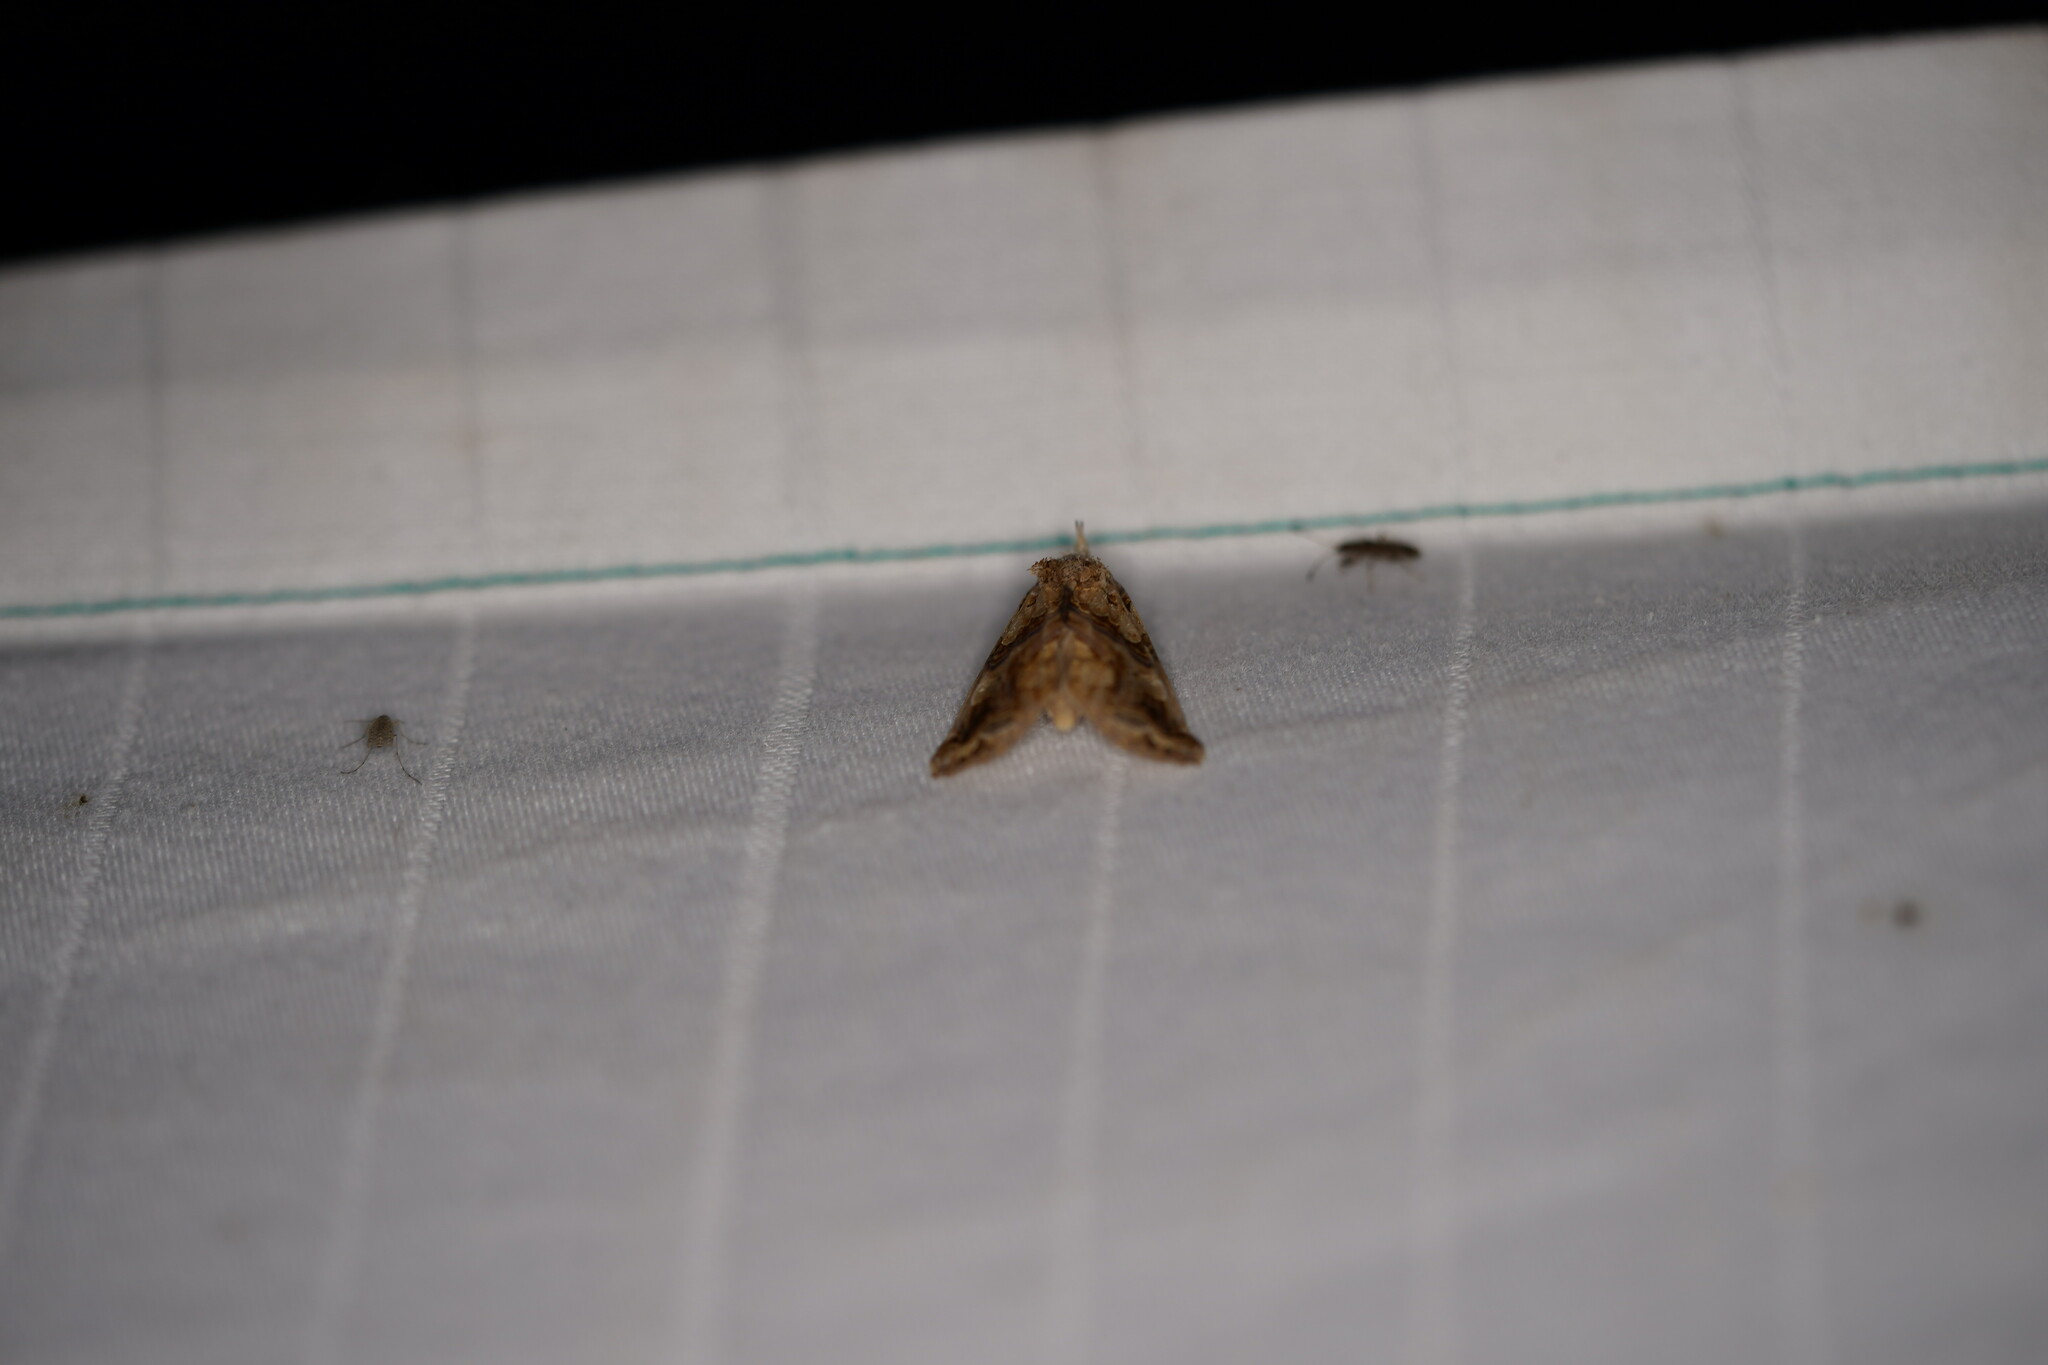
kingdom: Animalia
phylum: Arthropoda
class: Insecta
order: Lepidoptera
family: Erebidae
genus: Plusiodonta
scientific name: Plusiodonta compressipalpis
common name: Moonseed moth
